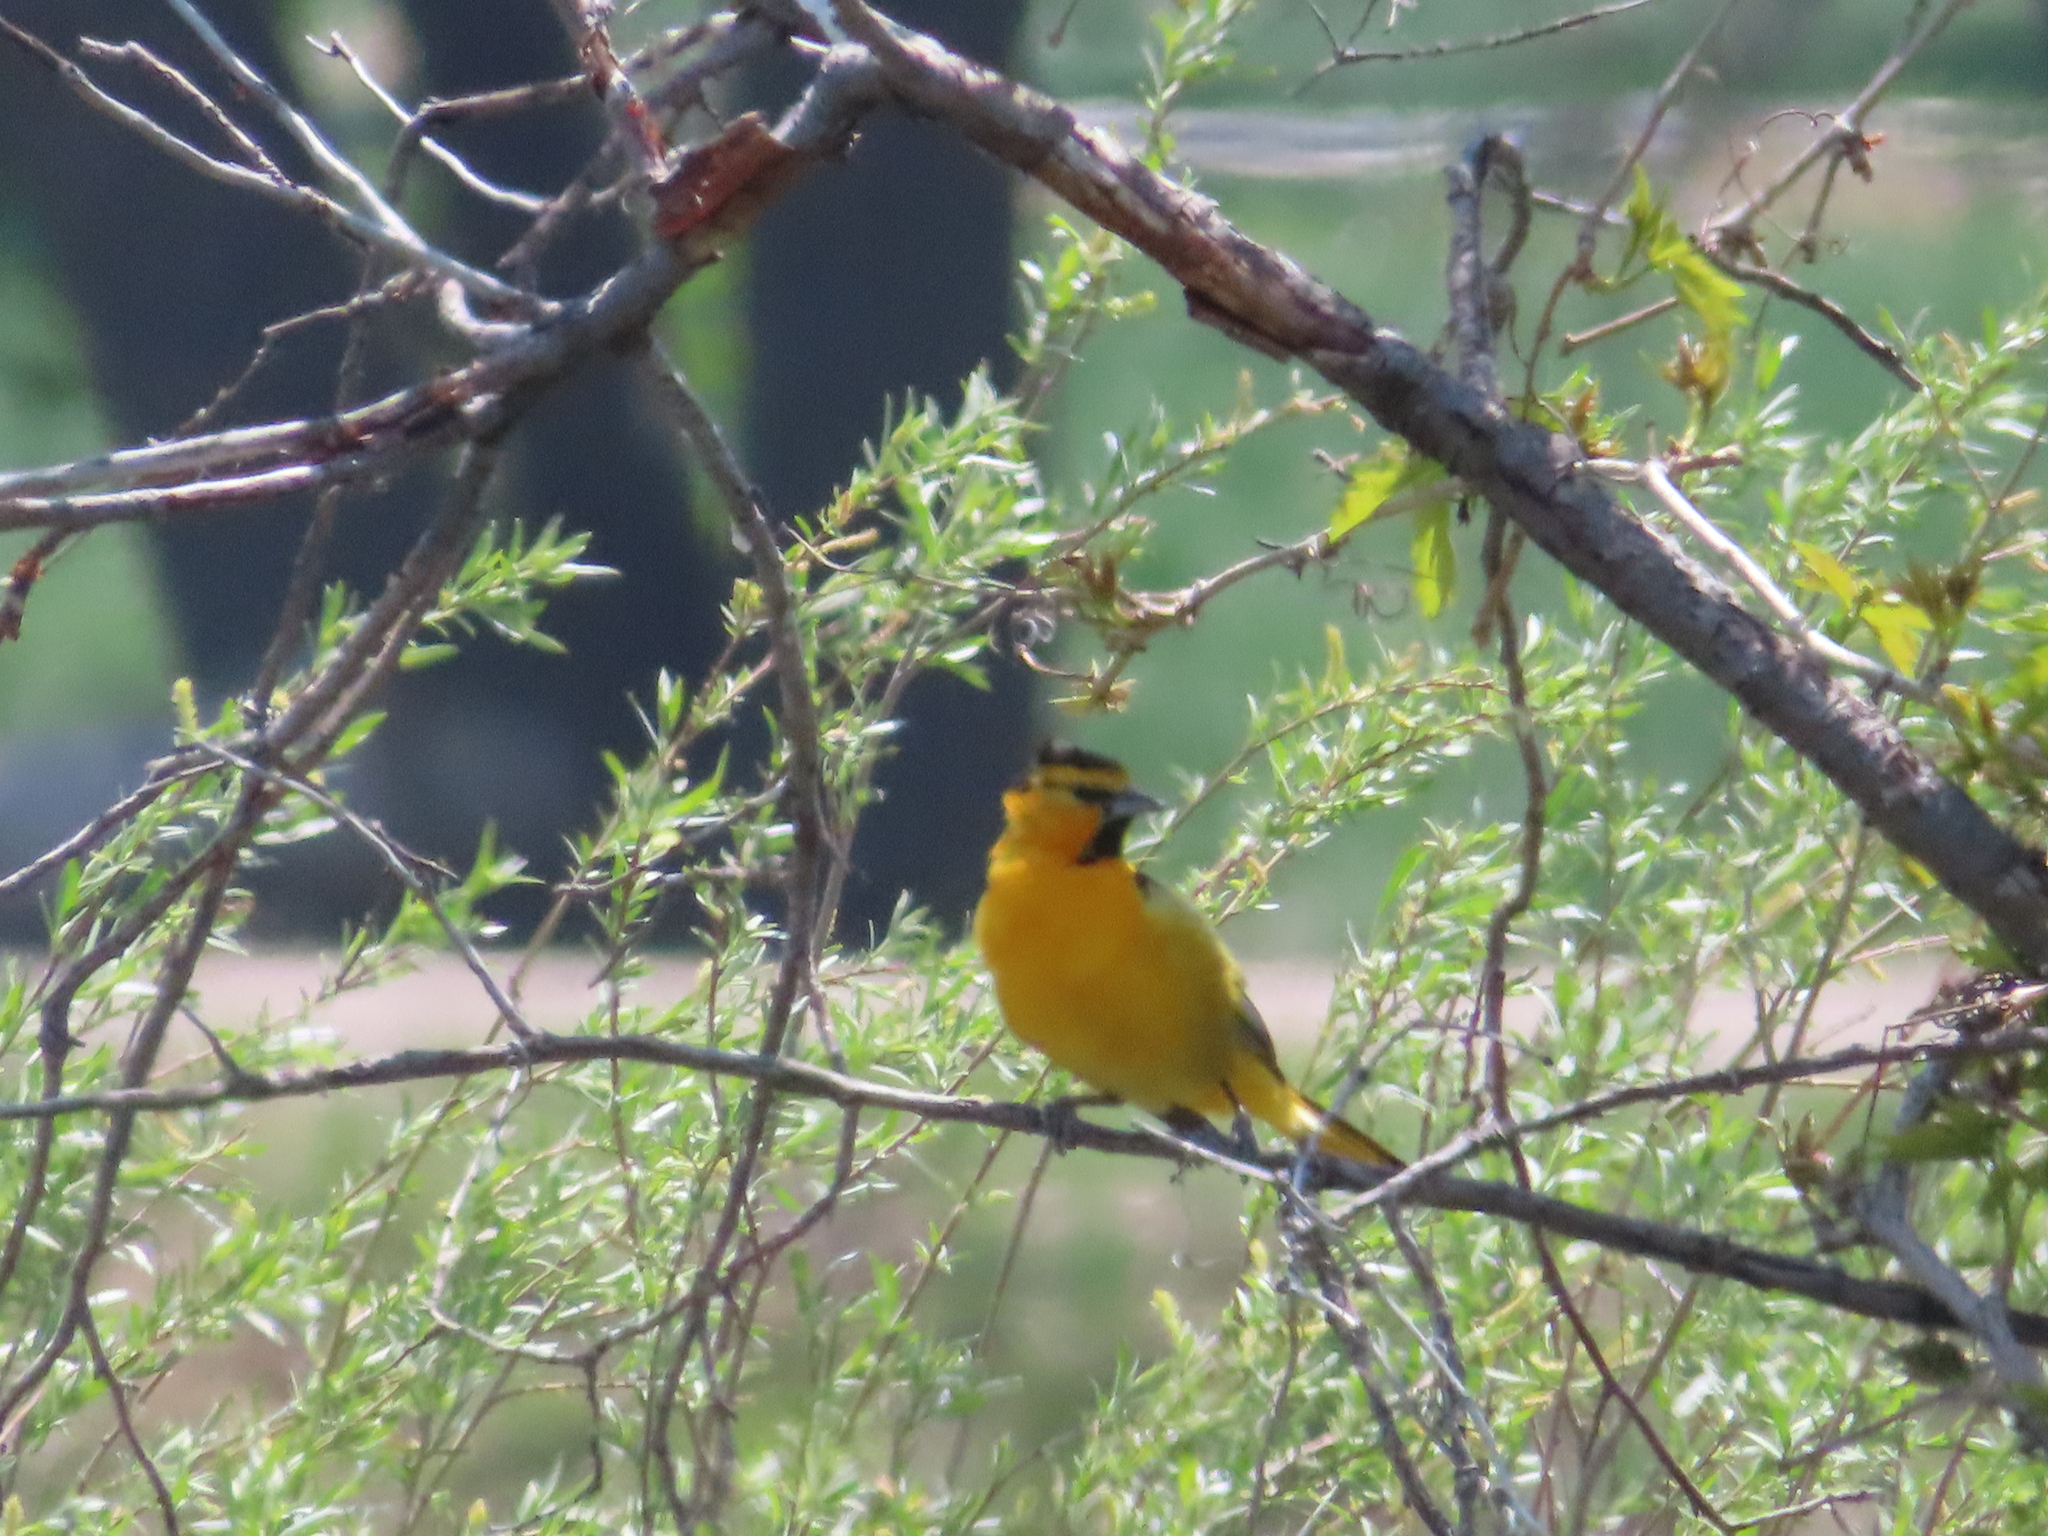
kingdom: Animalia
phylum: Chordata
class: Aves
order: Passeriformes
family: Icteridae
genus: Icterus
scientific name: Icterus bullockii
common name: Bullock's oriole
